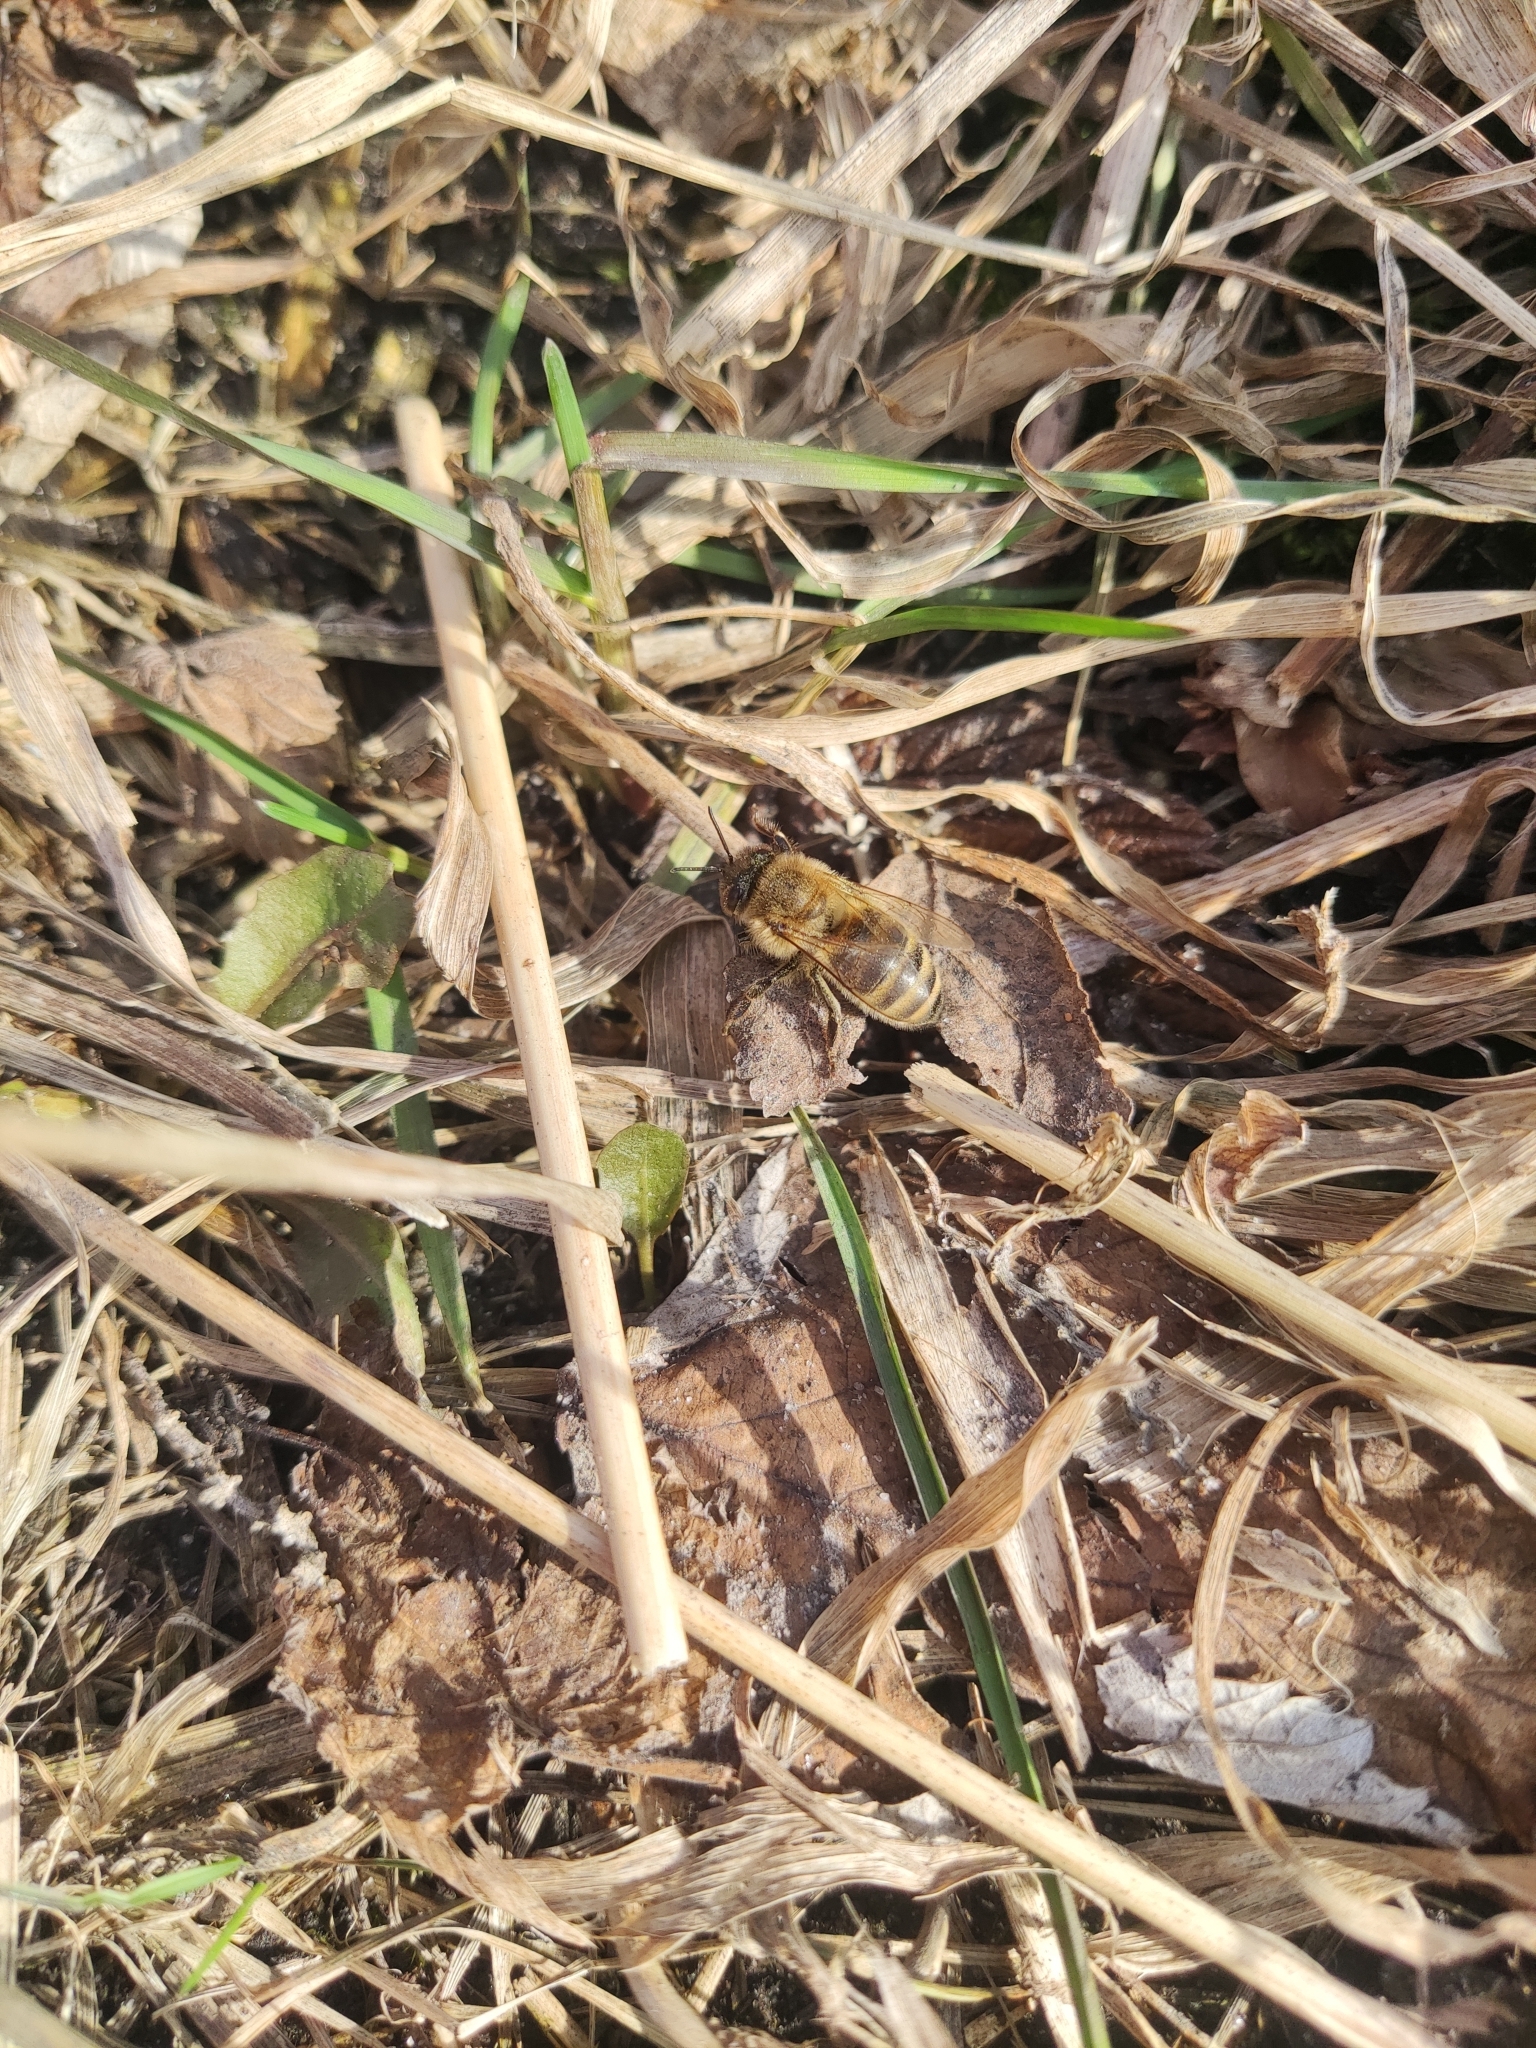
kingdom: Animalia
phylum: Arthropoda
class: Insecta
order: Hymenoptera
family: Apidae
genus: Apis
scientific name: Apis mellifera
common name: Honey bee
